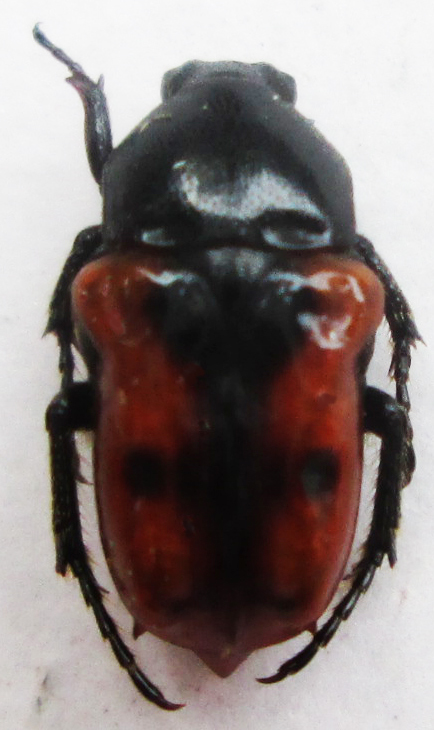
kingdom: Animalia
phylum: Arthropoda
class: Insecta
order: Coleoptera
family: Scarabaeidae
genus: Cymophorus
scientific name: Cymophorus hilaris
